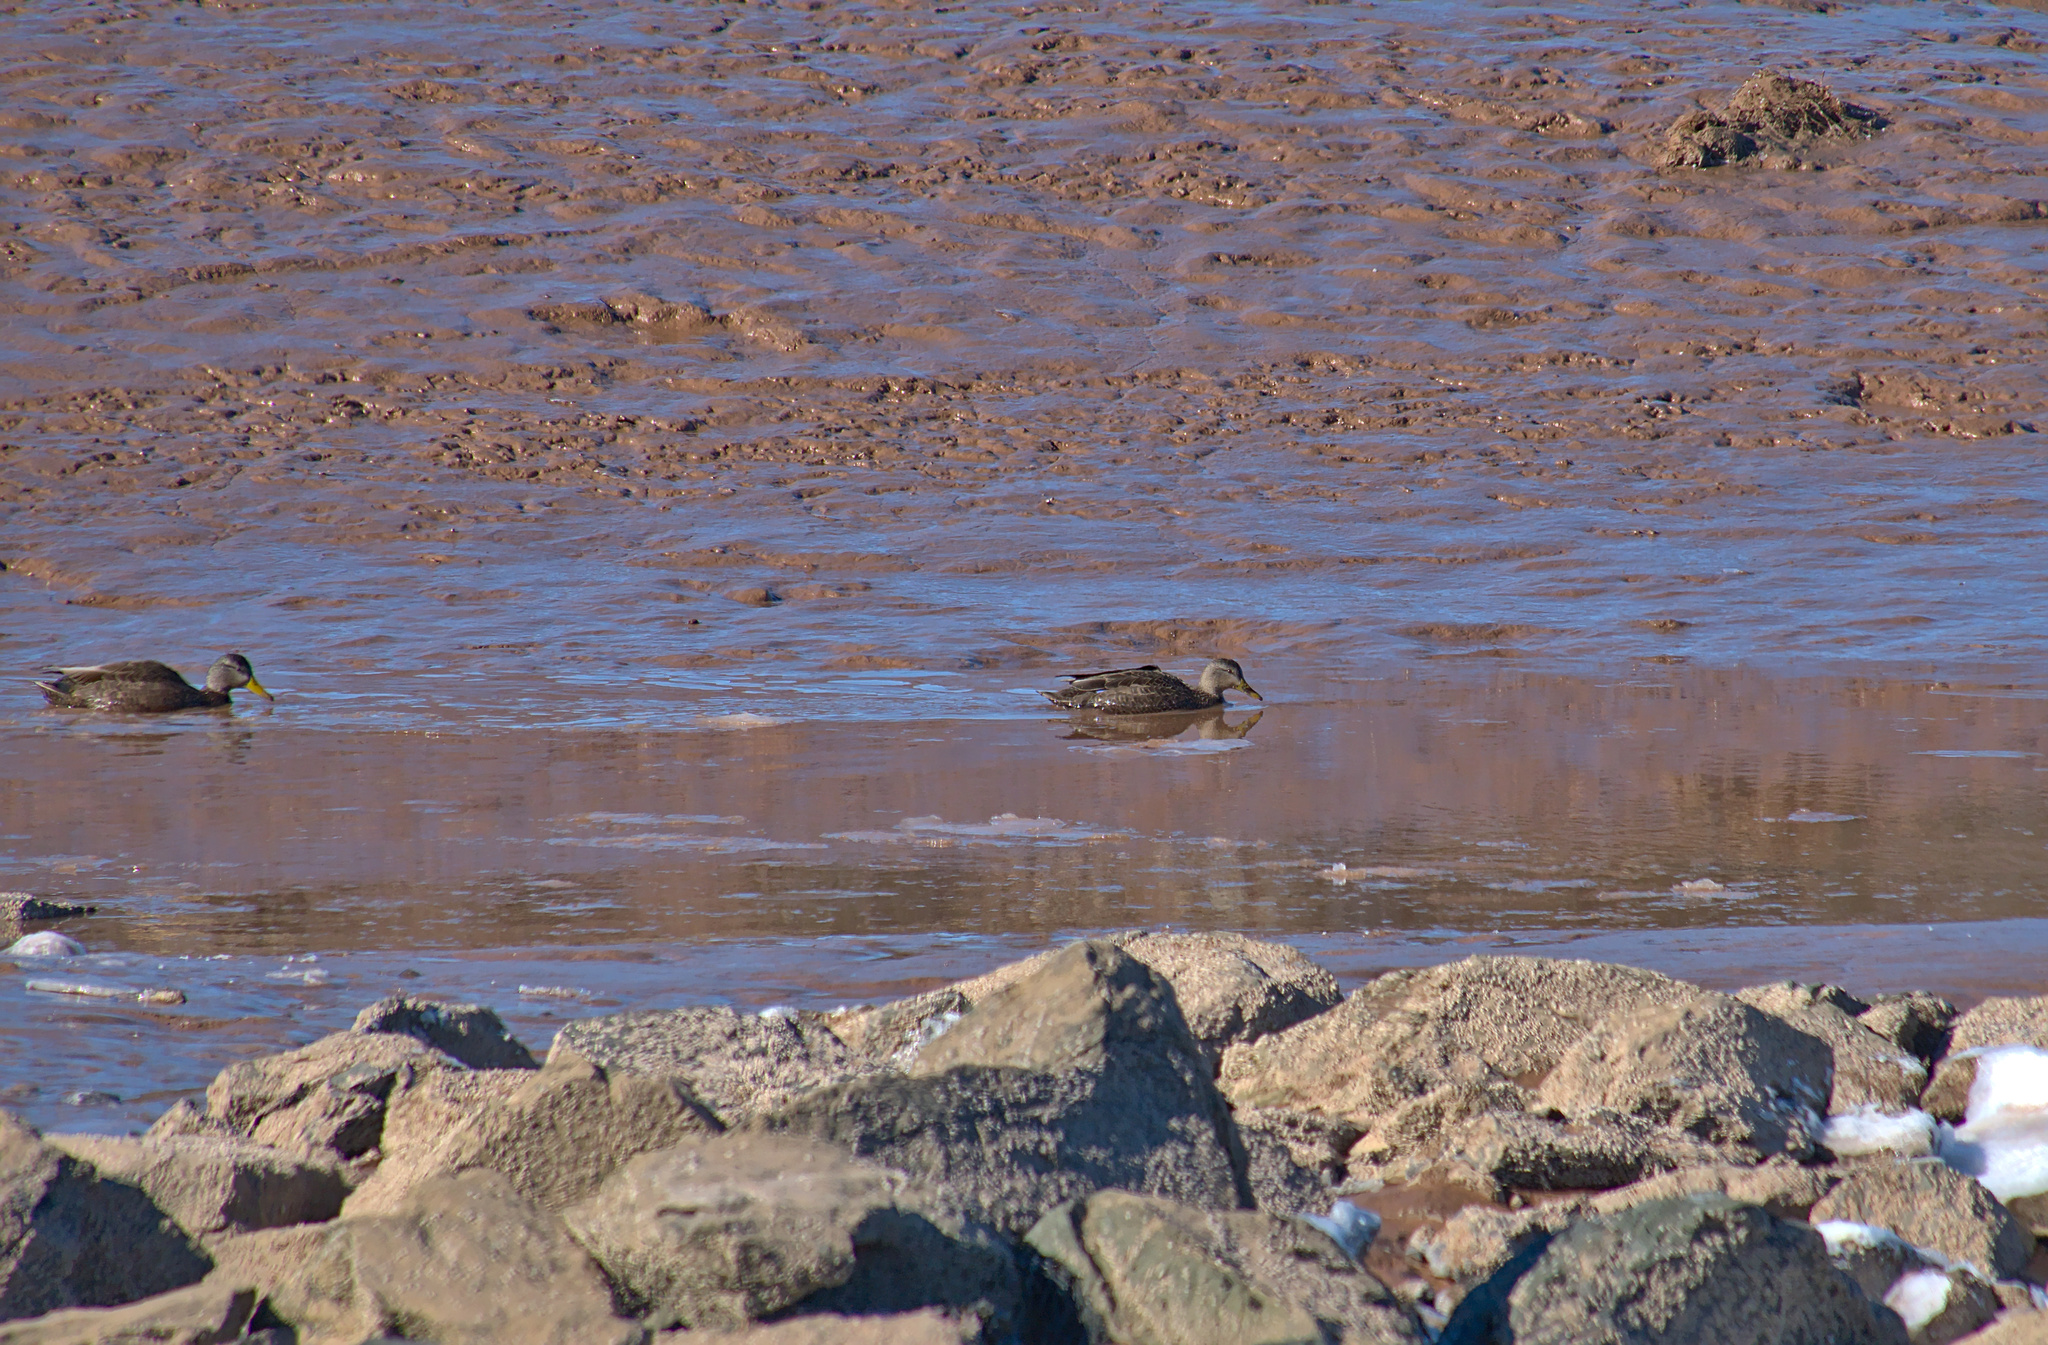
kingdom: Animalia
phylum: Chordata
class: Aves
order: Anseriformes
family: Anatidae
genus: Anas
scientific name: Anas rubripes
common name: American black duck
